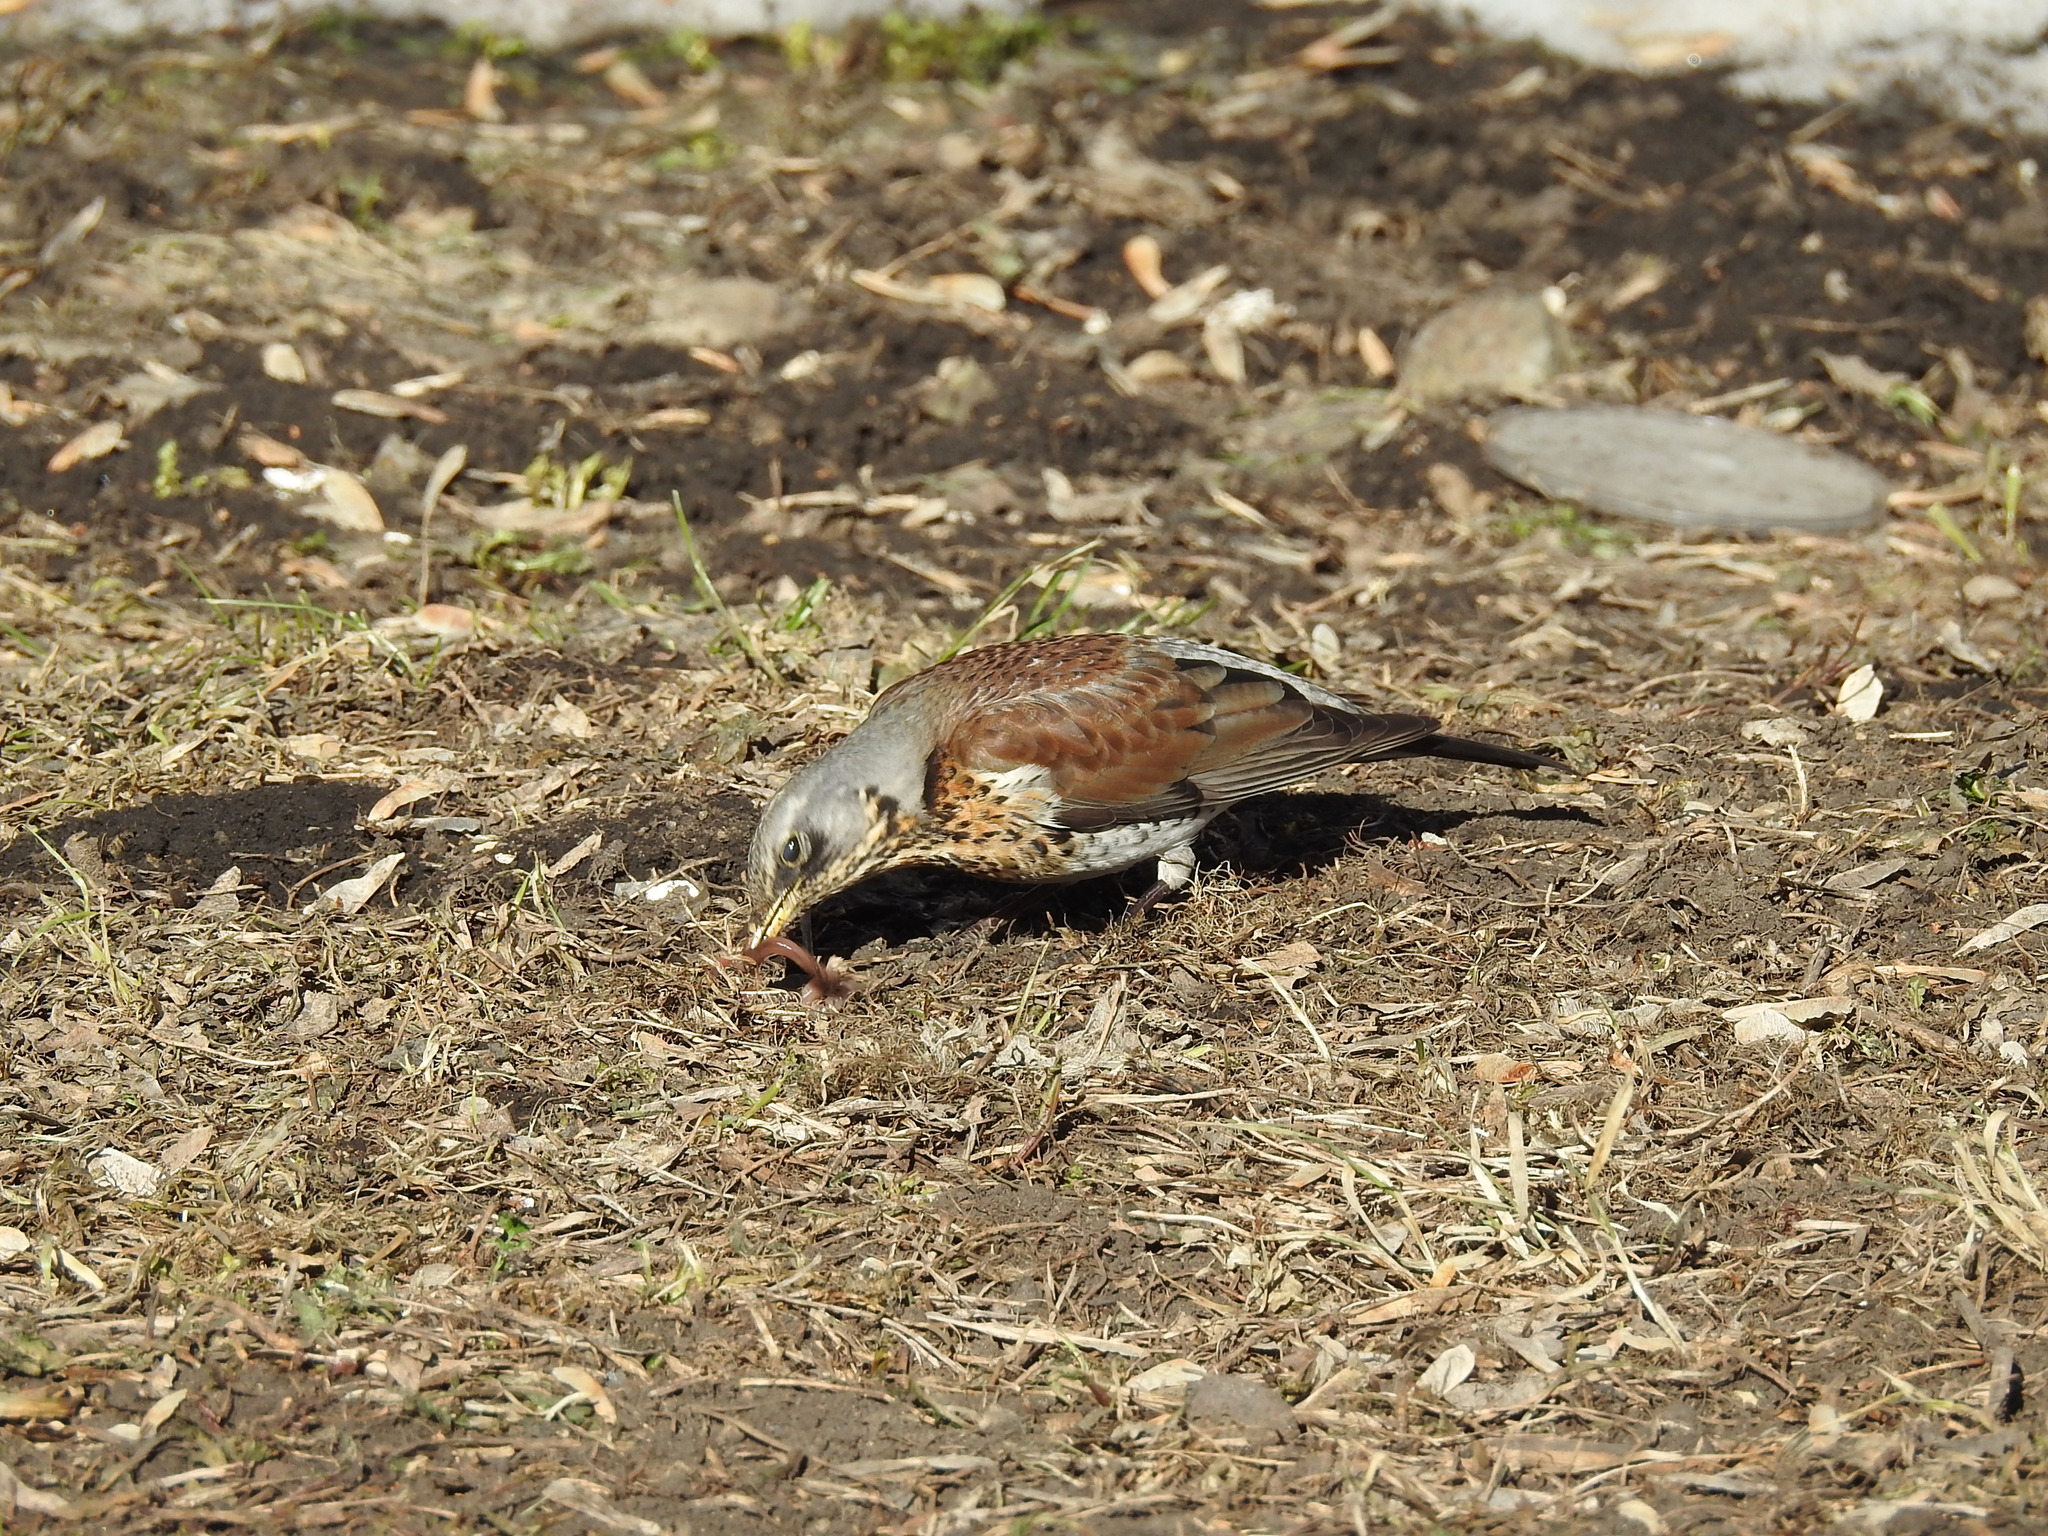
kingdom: Animalia
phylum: Chordata
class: Aves
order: Passeriformes
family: Turdidae
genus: Turdus
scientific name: Turdus pilaris
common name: Fieldfare
